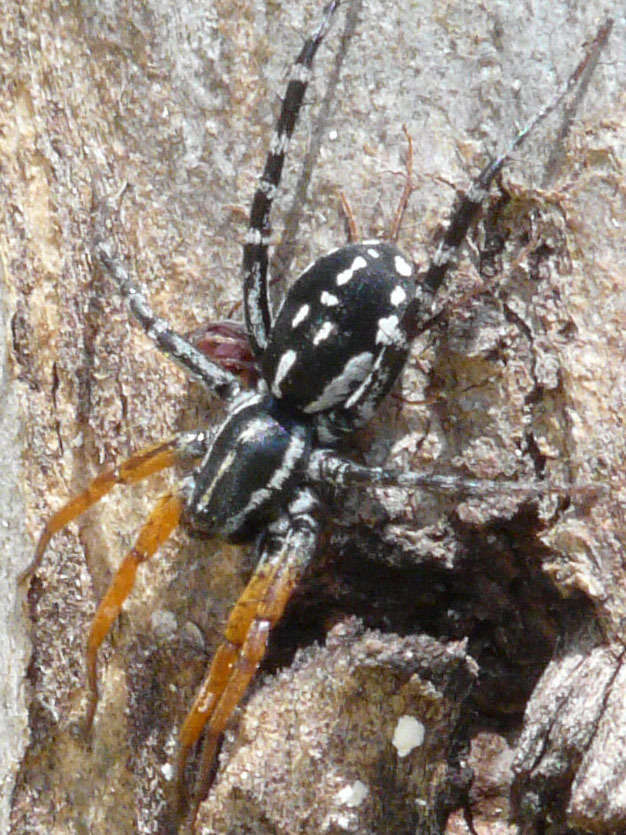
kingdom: Animalia
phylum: Arthropoda
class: Arachnida
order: Araneae
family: Corinnidae
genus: Nyssus
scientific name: Nyssus coloripes
